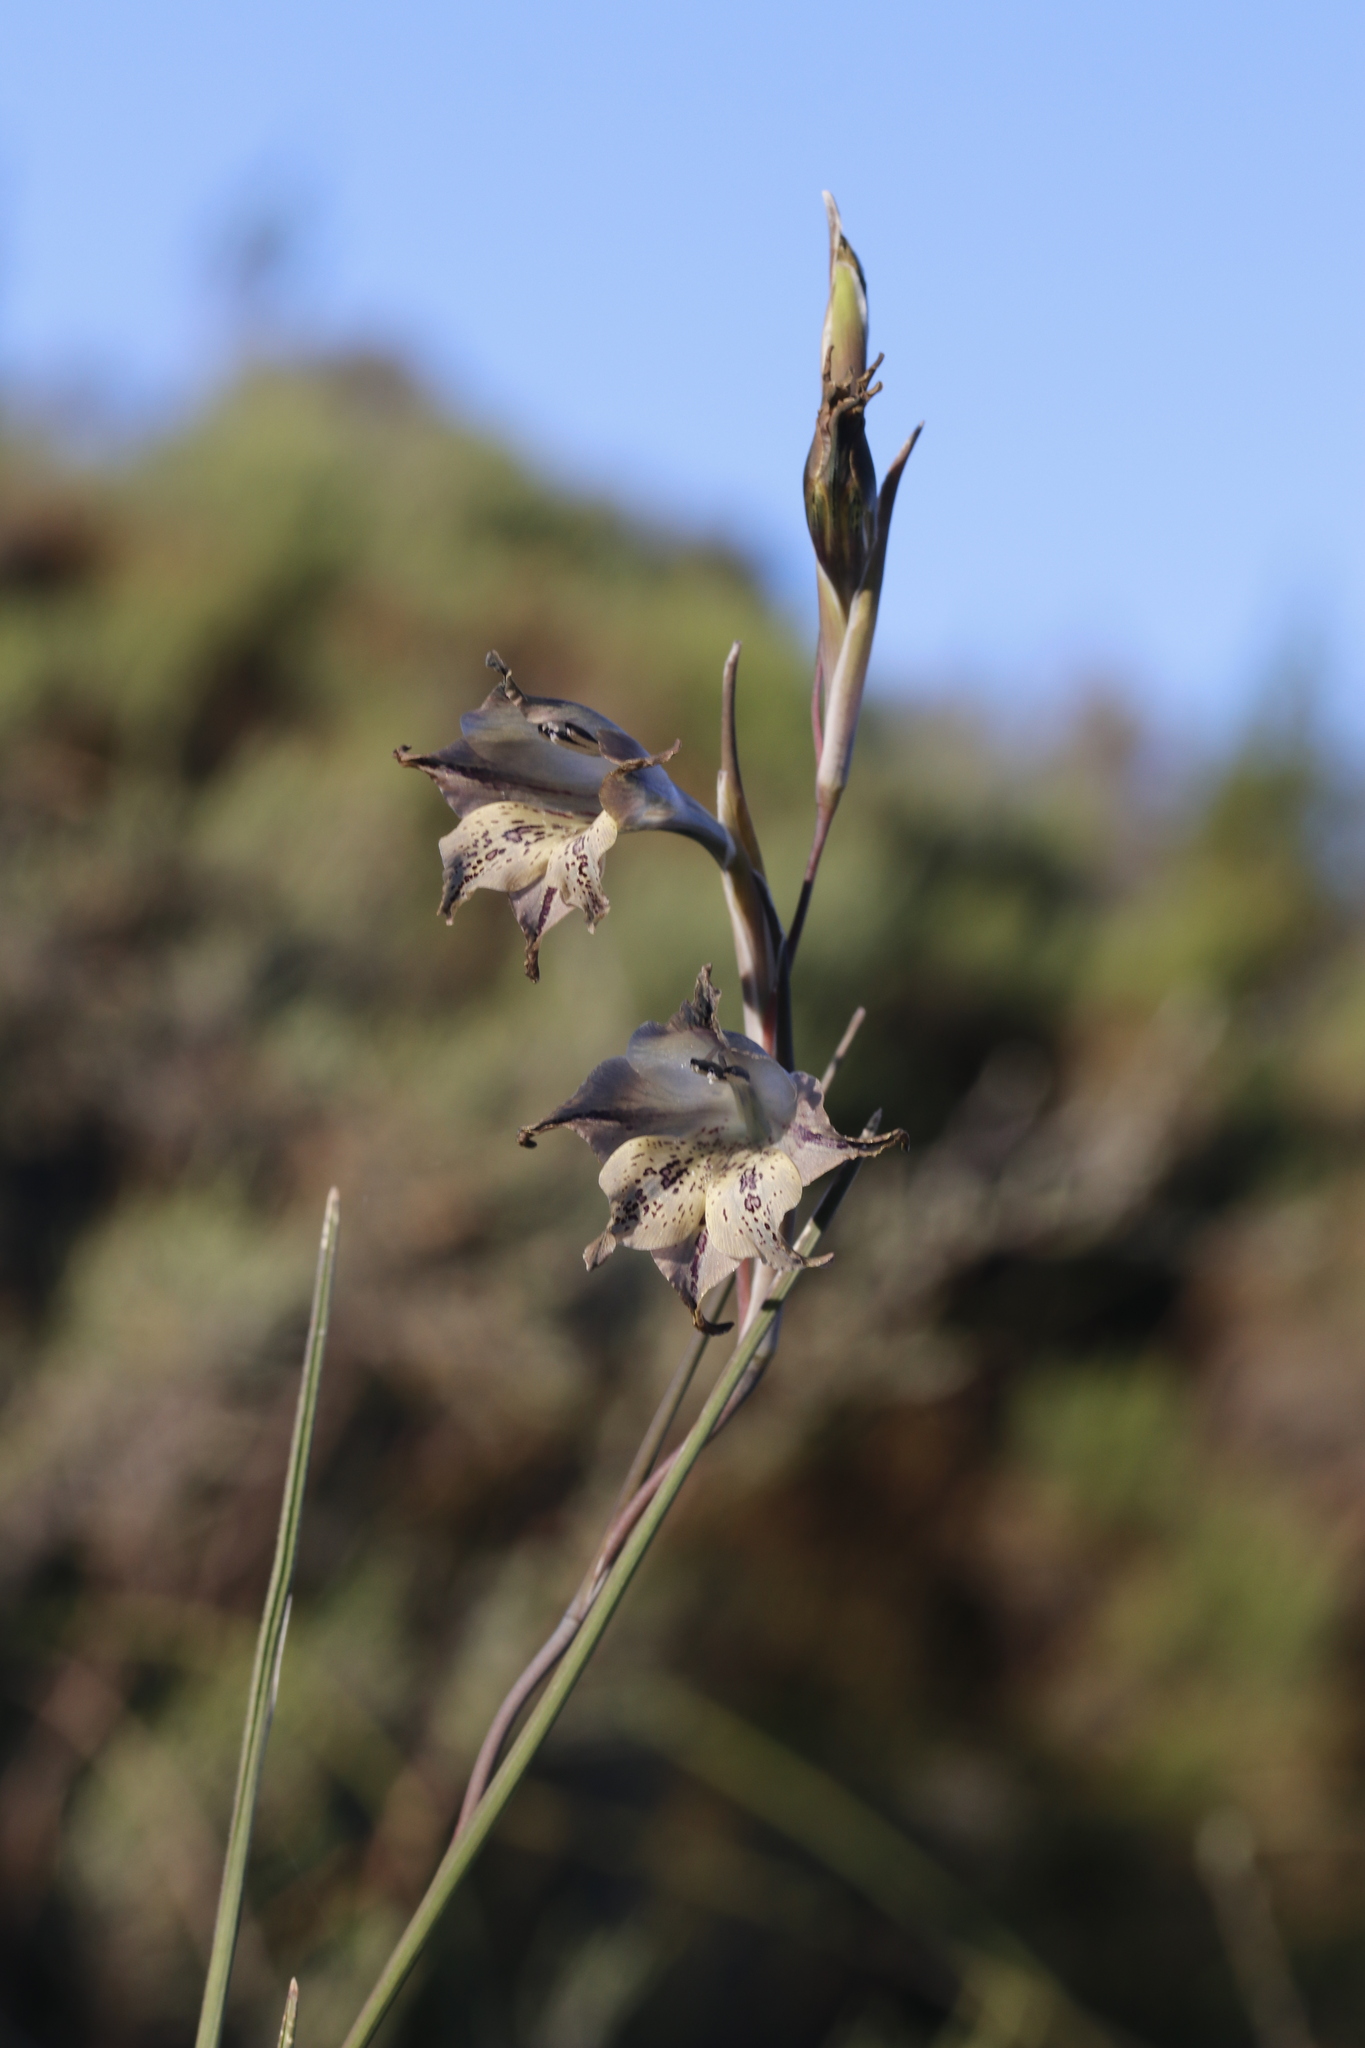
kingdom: Plantae
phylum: Tracheophyta
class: Liliopsida
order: Asparagales
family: Iridaceae
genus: Gladiolus
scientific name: Gladiolus recurvus
